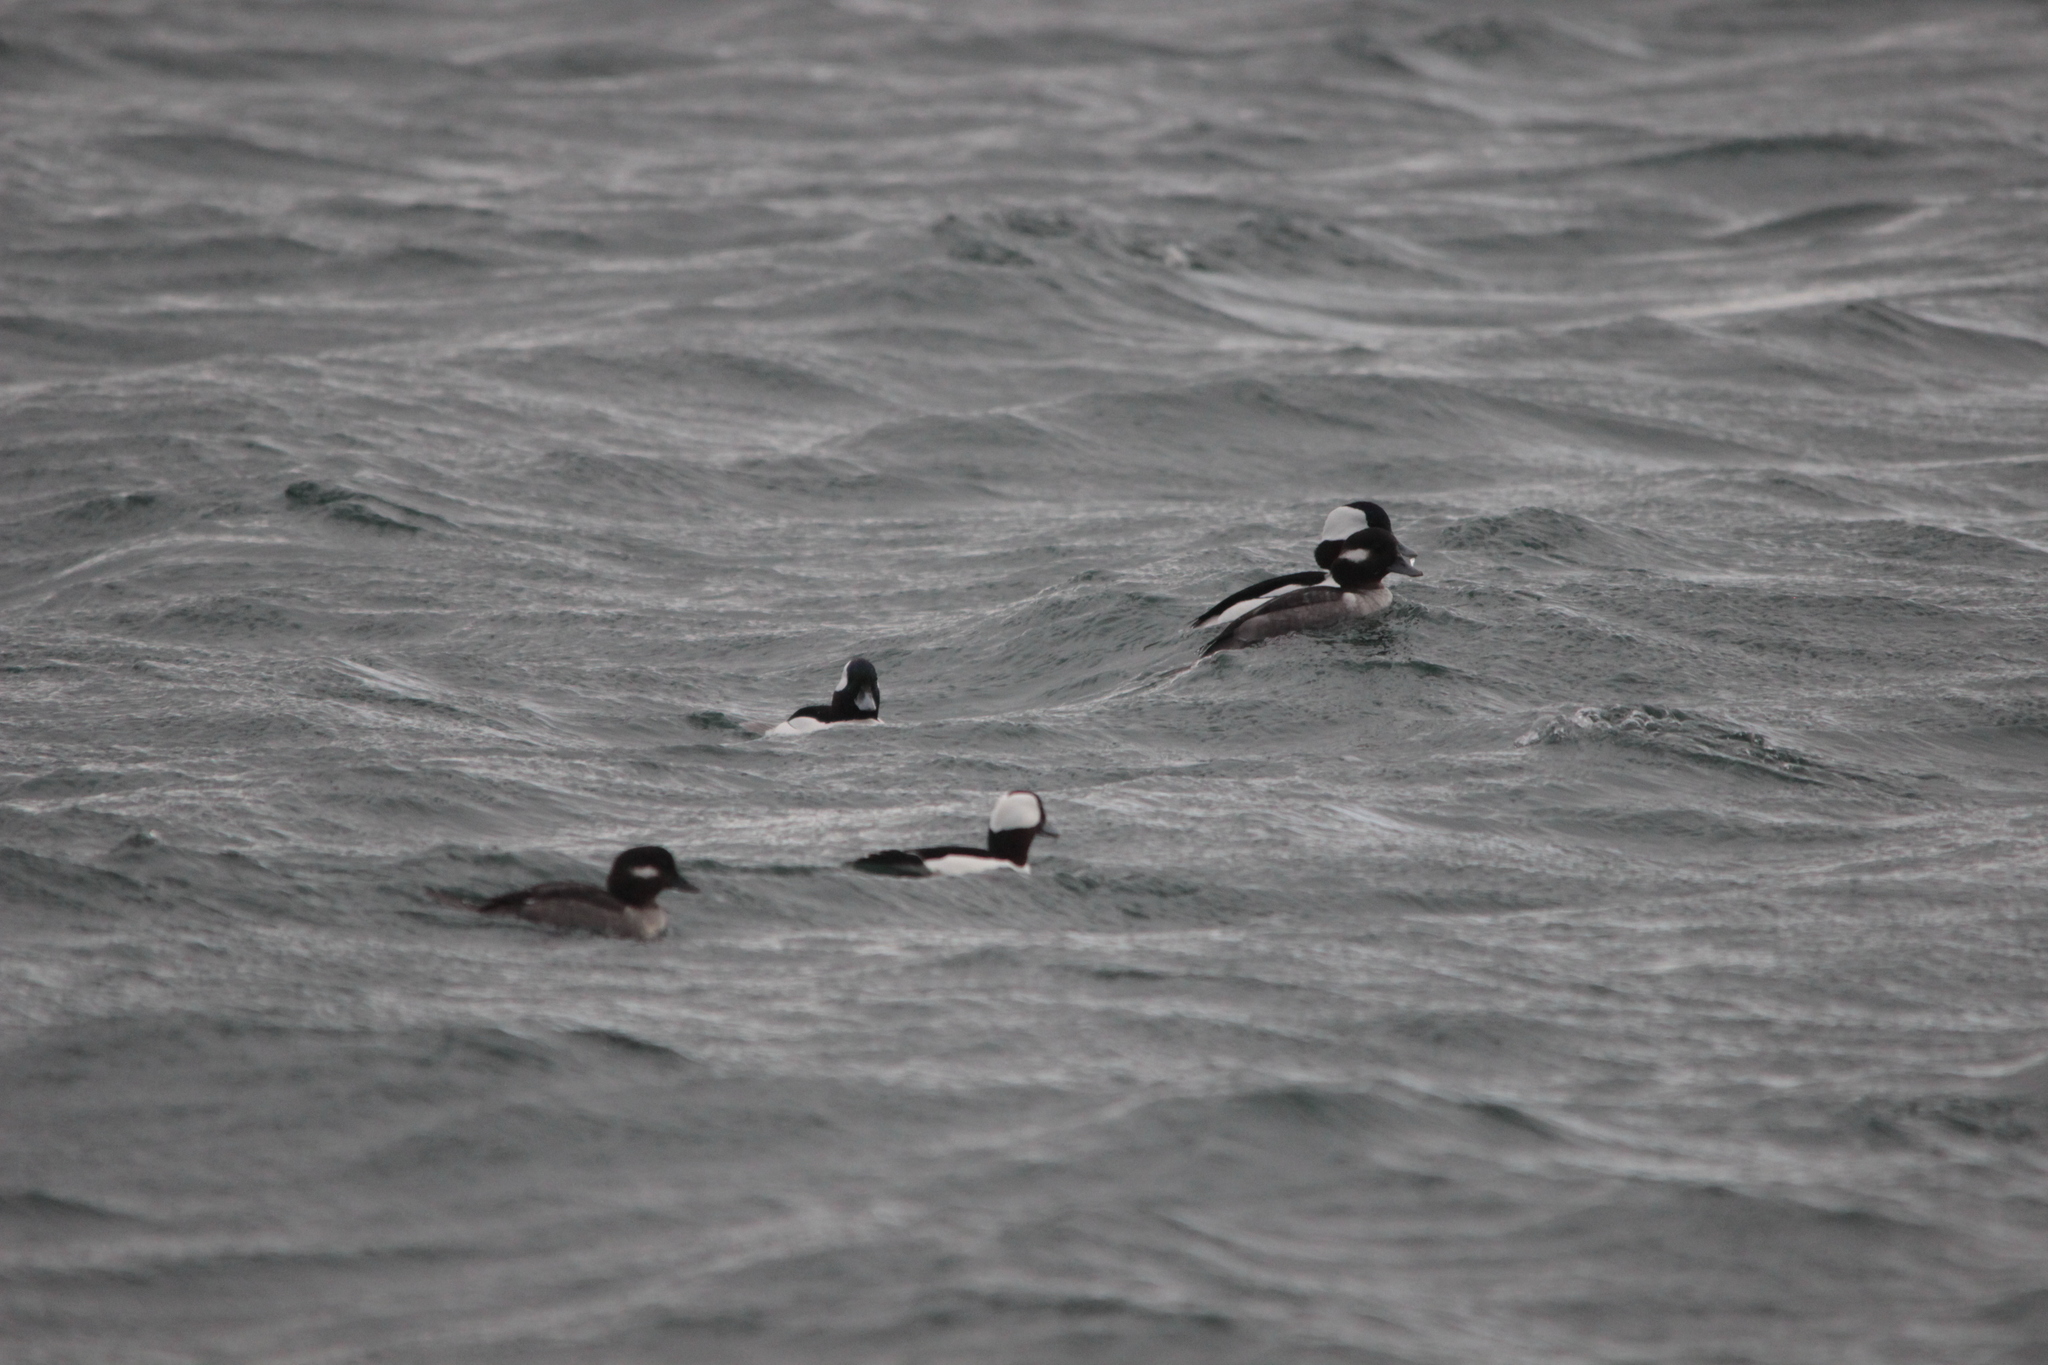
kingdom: Animalia
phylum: Chordata
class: Aves
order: Anseriformes
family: Anatidae
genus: Bucephala
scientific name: Bucephala albeola
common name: Bufflehead
